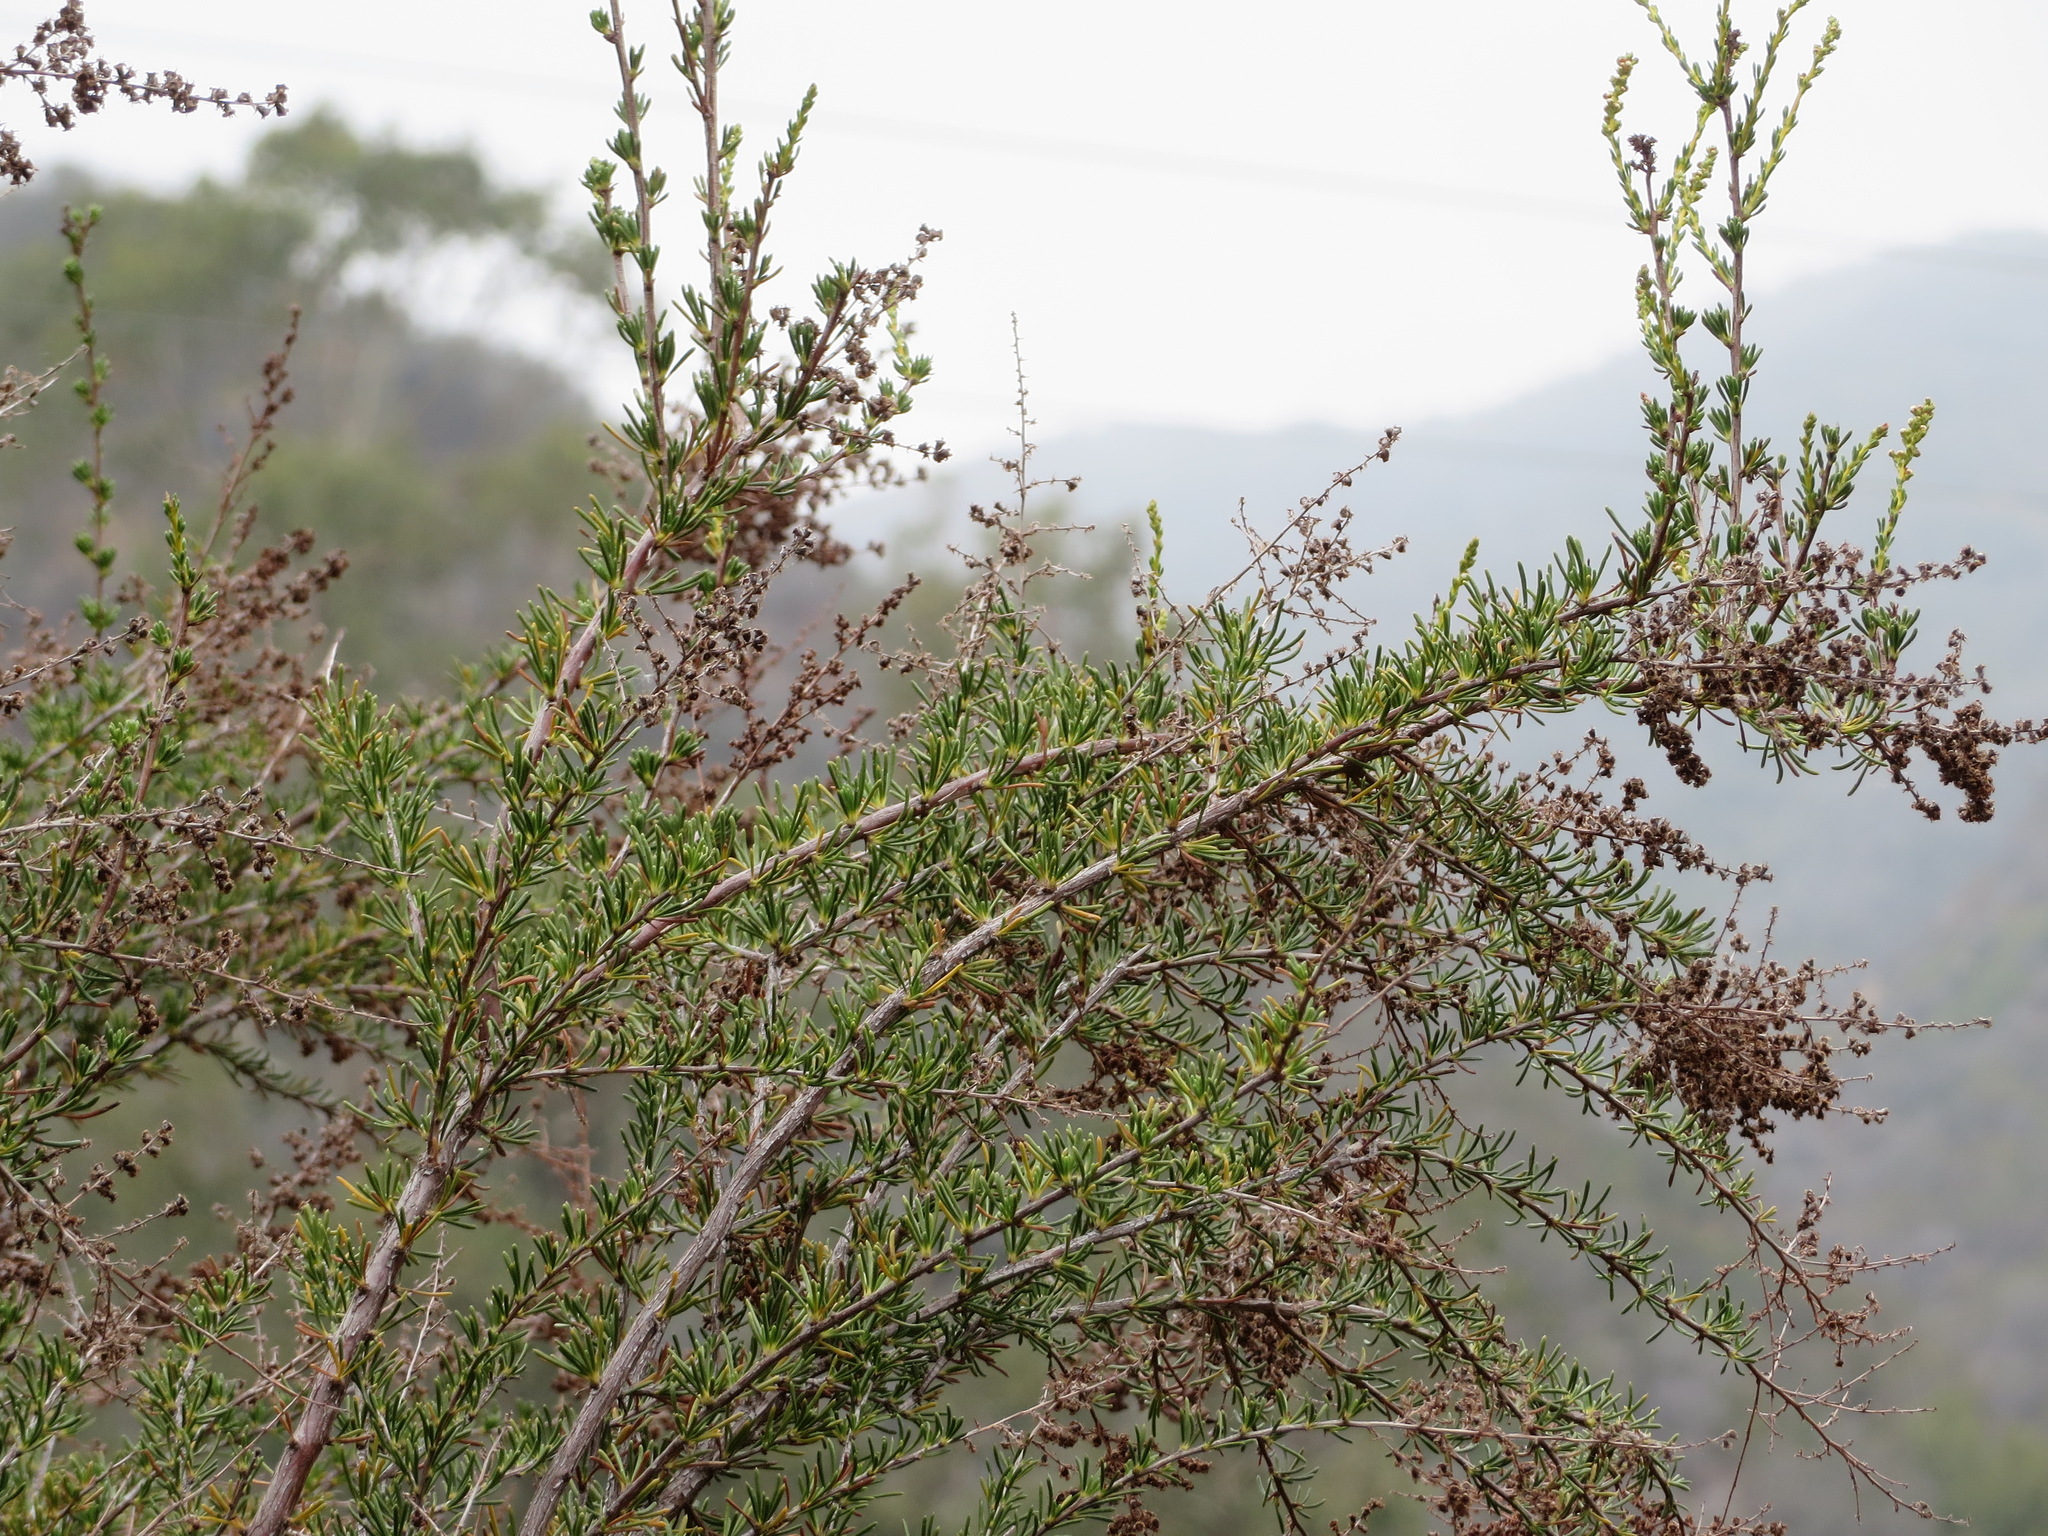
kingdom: Plantae
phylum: Tracheophyta
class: Magnoliopsida
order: Rosales
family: Rosaceae
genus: Adenostoma
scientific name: Adenostoma fasciculatum
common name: Chamise
